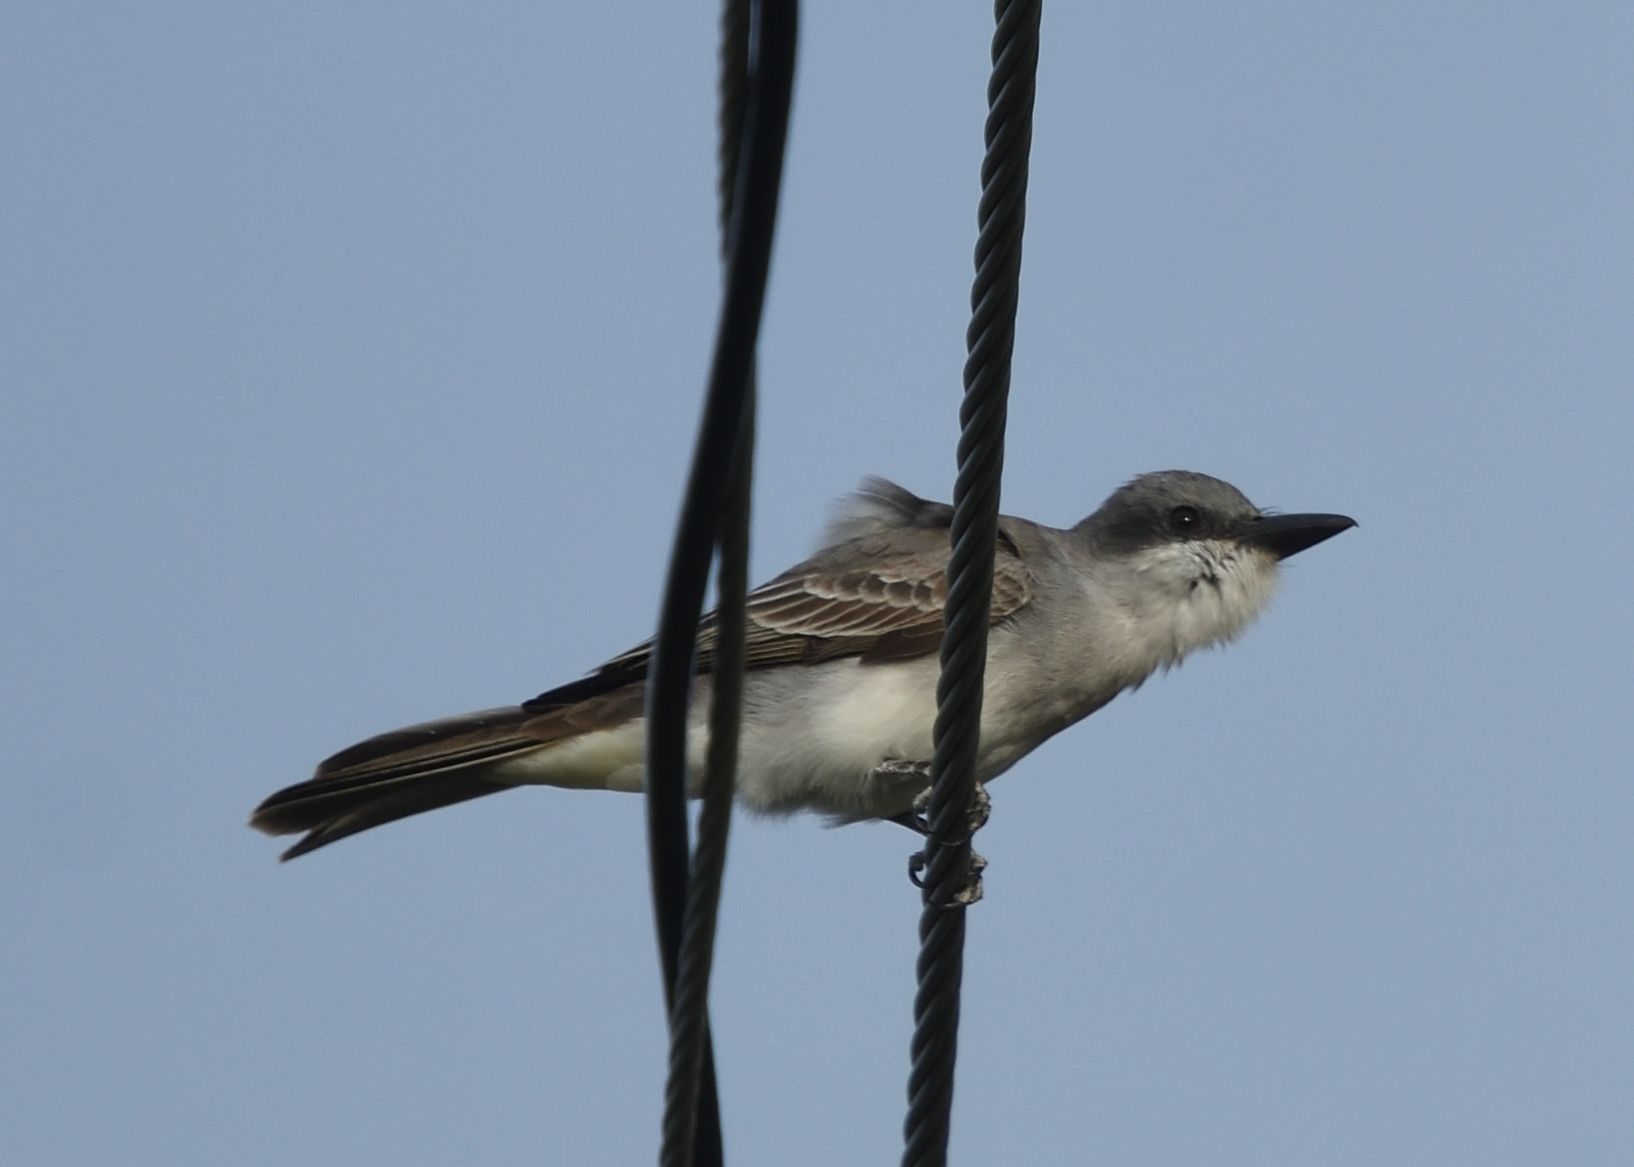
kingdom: Animalia
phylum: Chordata
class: Aves
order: Passeriformes
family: Tyrannidae
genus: Tyrannus
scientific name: Tyrannus dominicensis
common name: Gray kingbird
